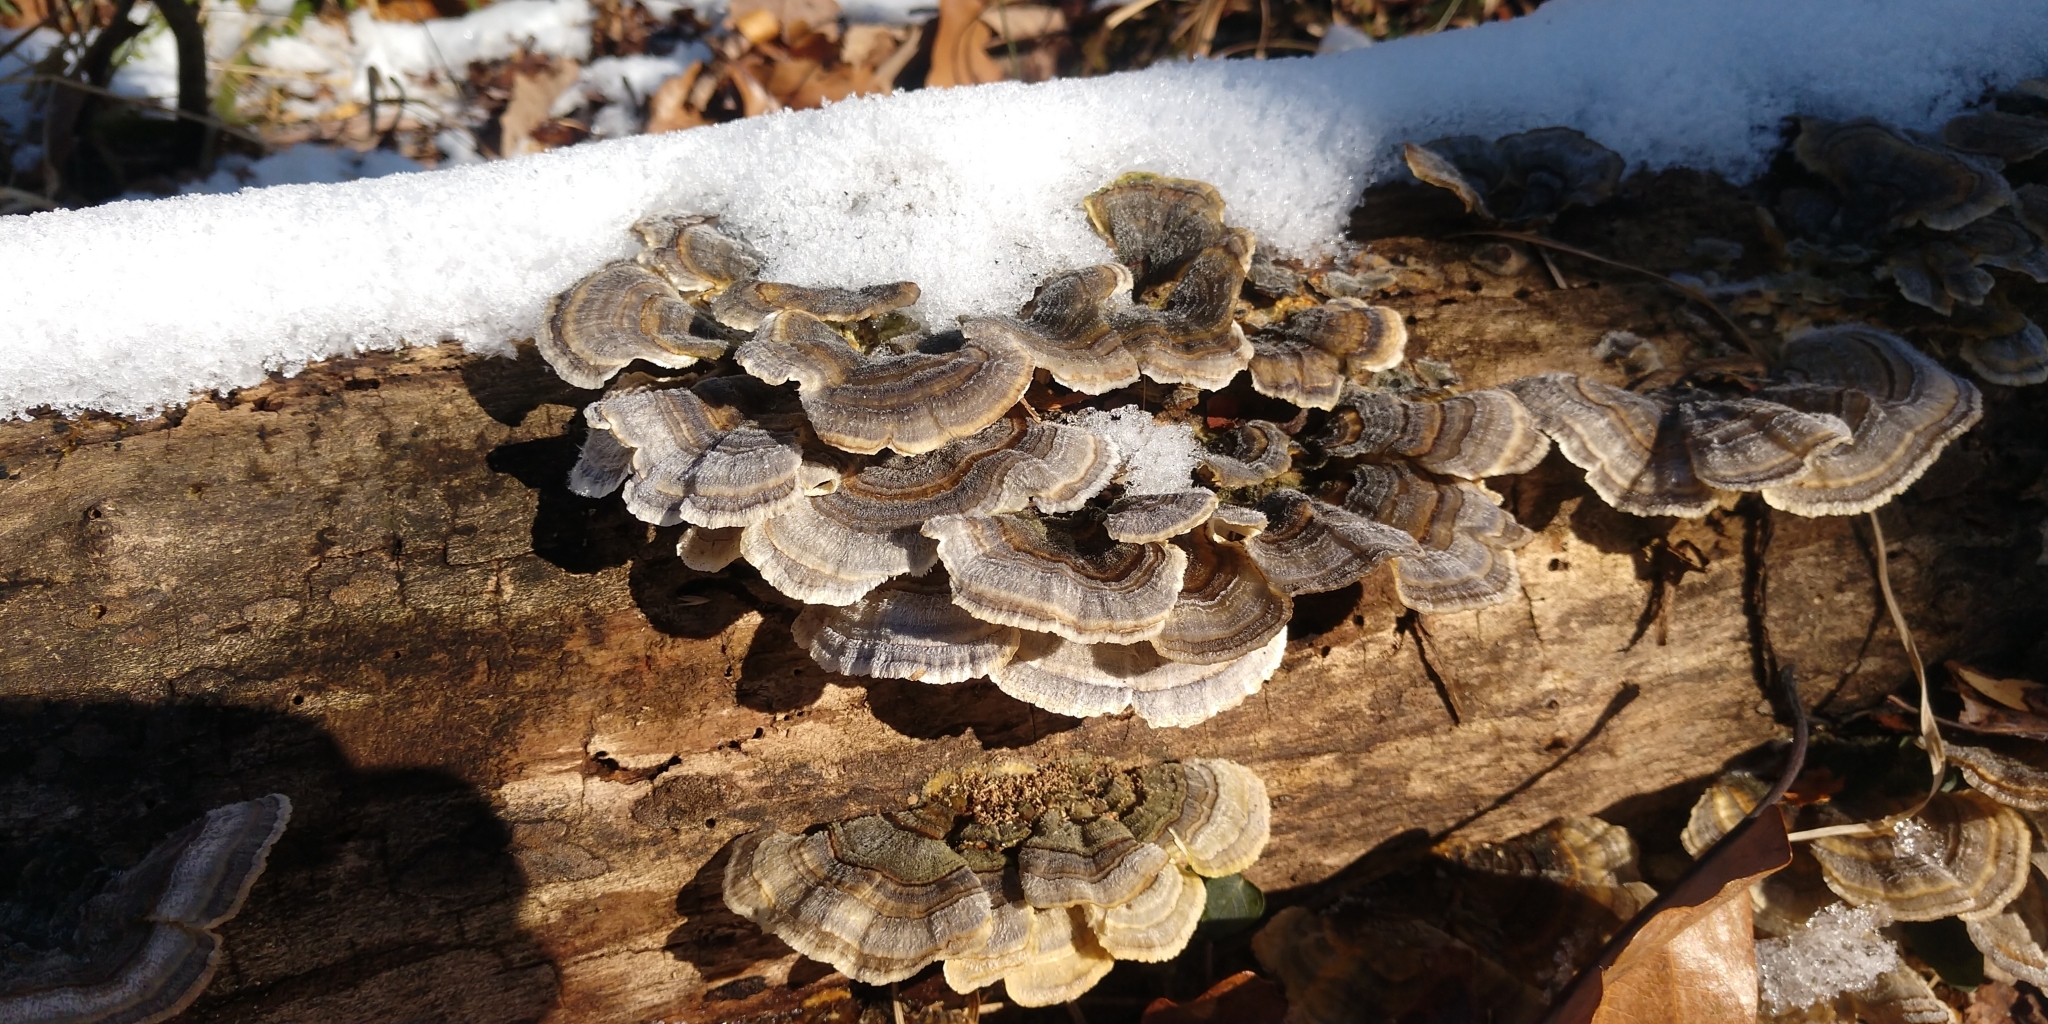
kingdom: Fungi
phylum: Basidiomycota
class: Agaricomycetes
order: Polyporales
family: Polyporaceae
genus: Trametes
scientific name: Trametes versicolor
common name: Turkeytail
